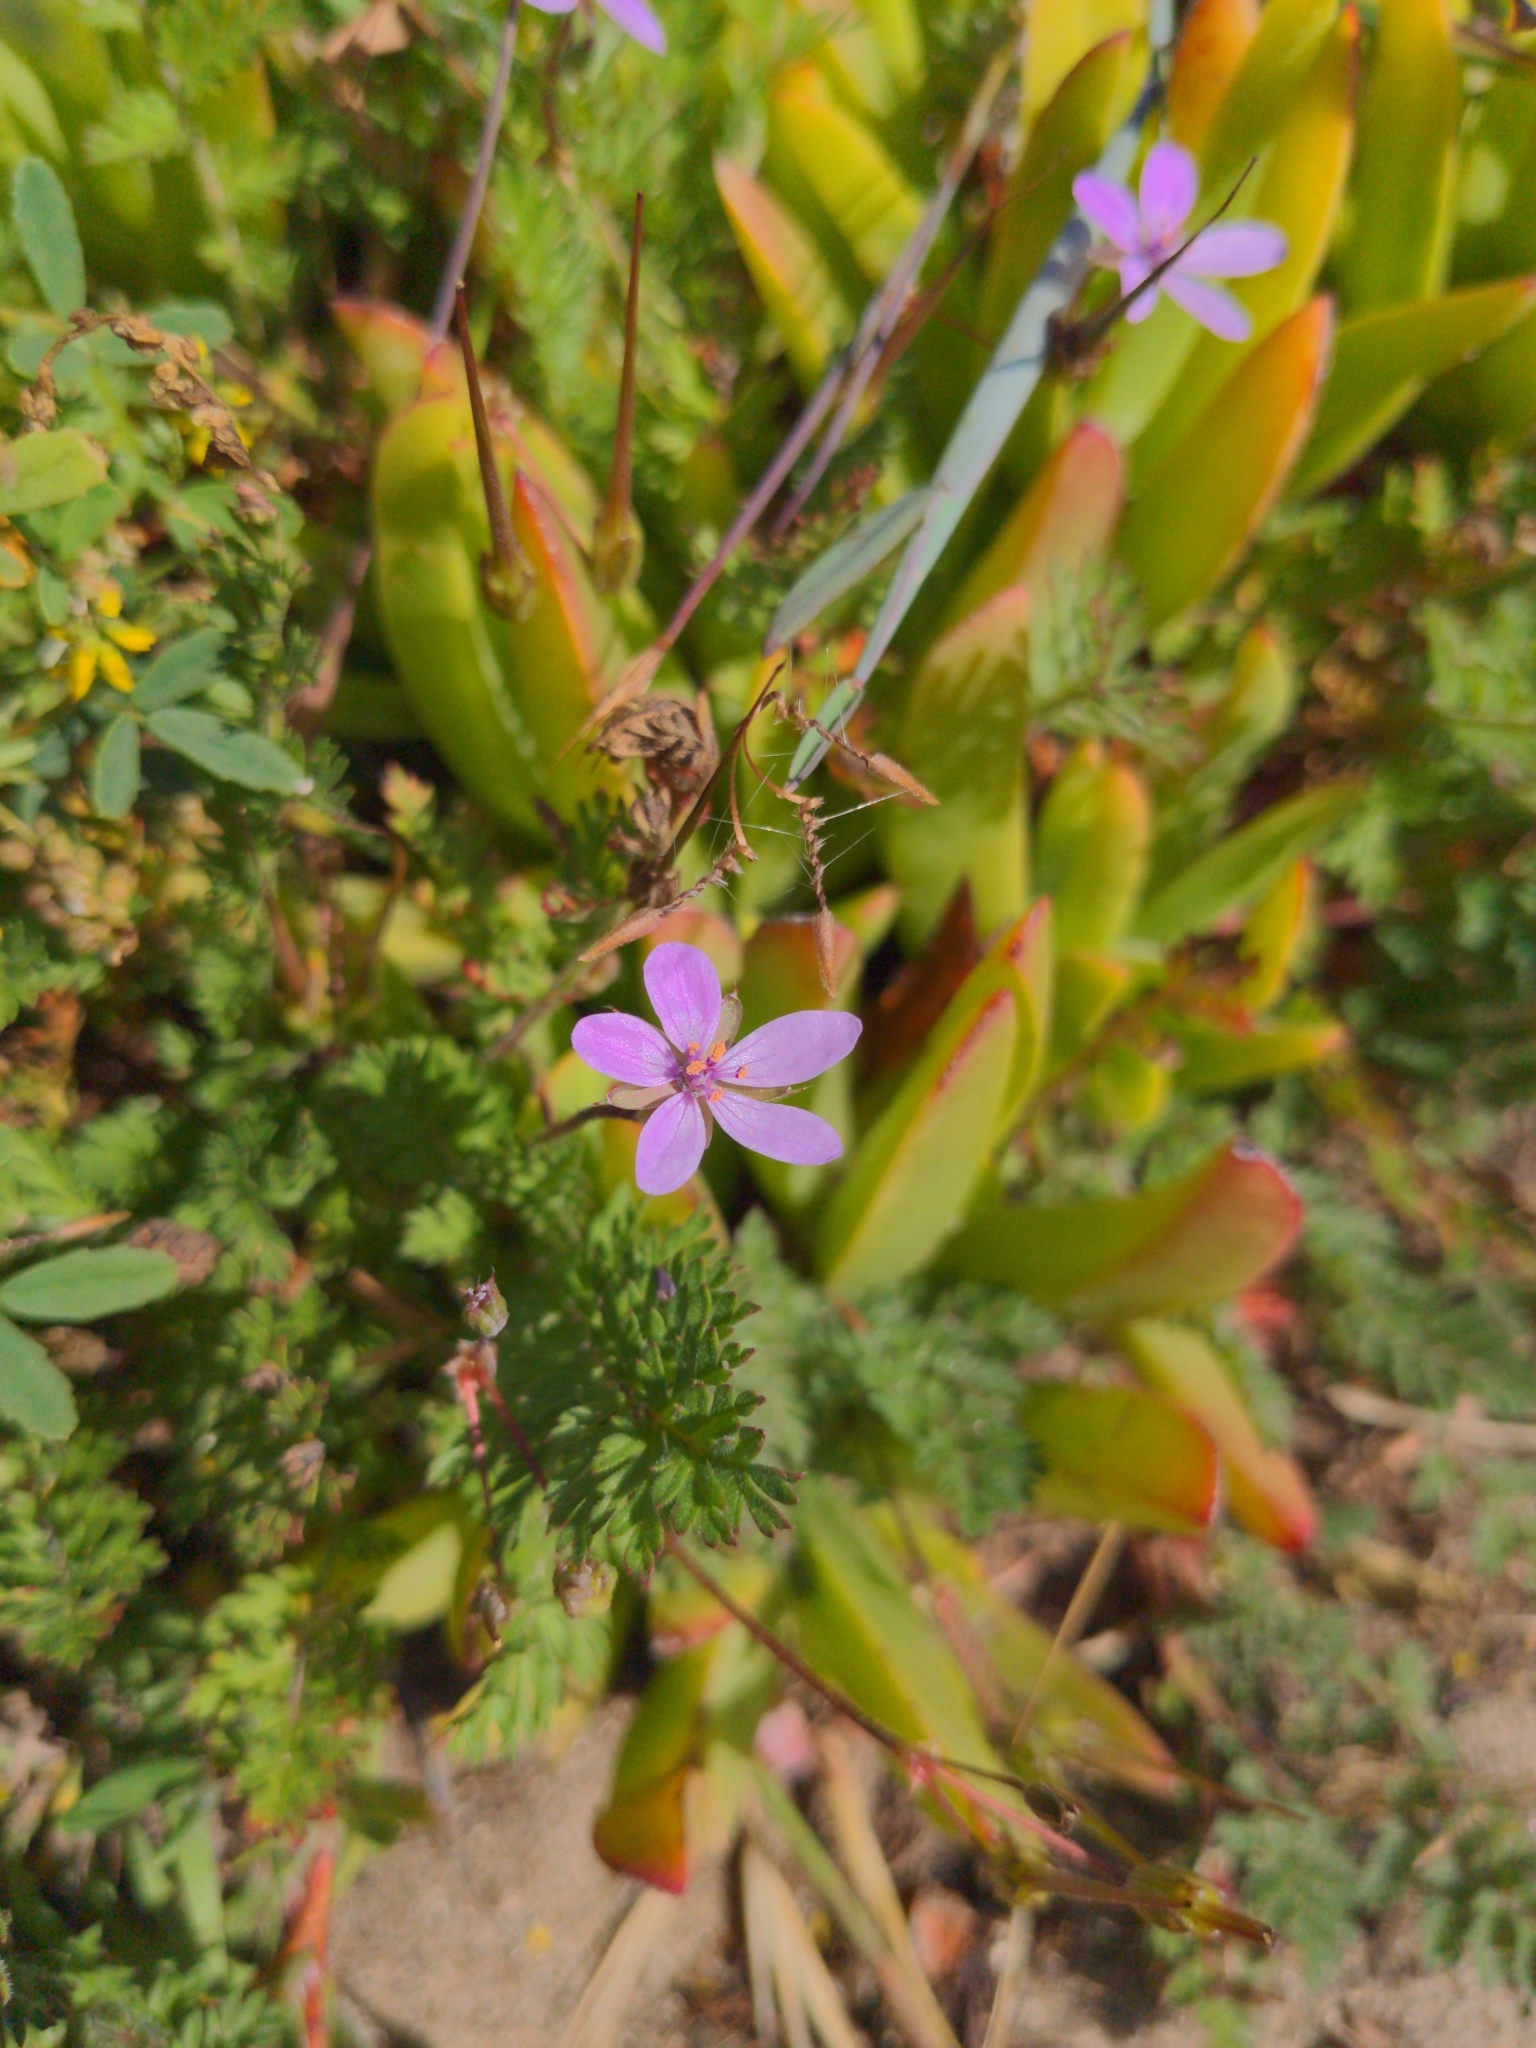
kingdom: Plantae
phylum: Tracheophyta
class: Magnoliopsida
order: Geraniales
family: Geraniaceae
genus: Erodium
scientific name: Erodium cicutarium
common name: Common stork's-bill
